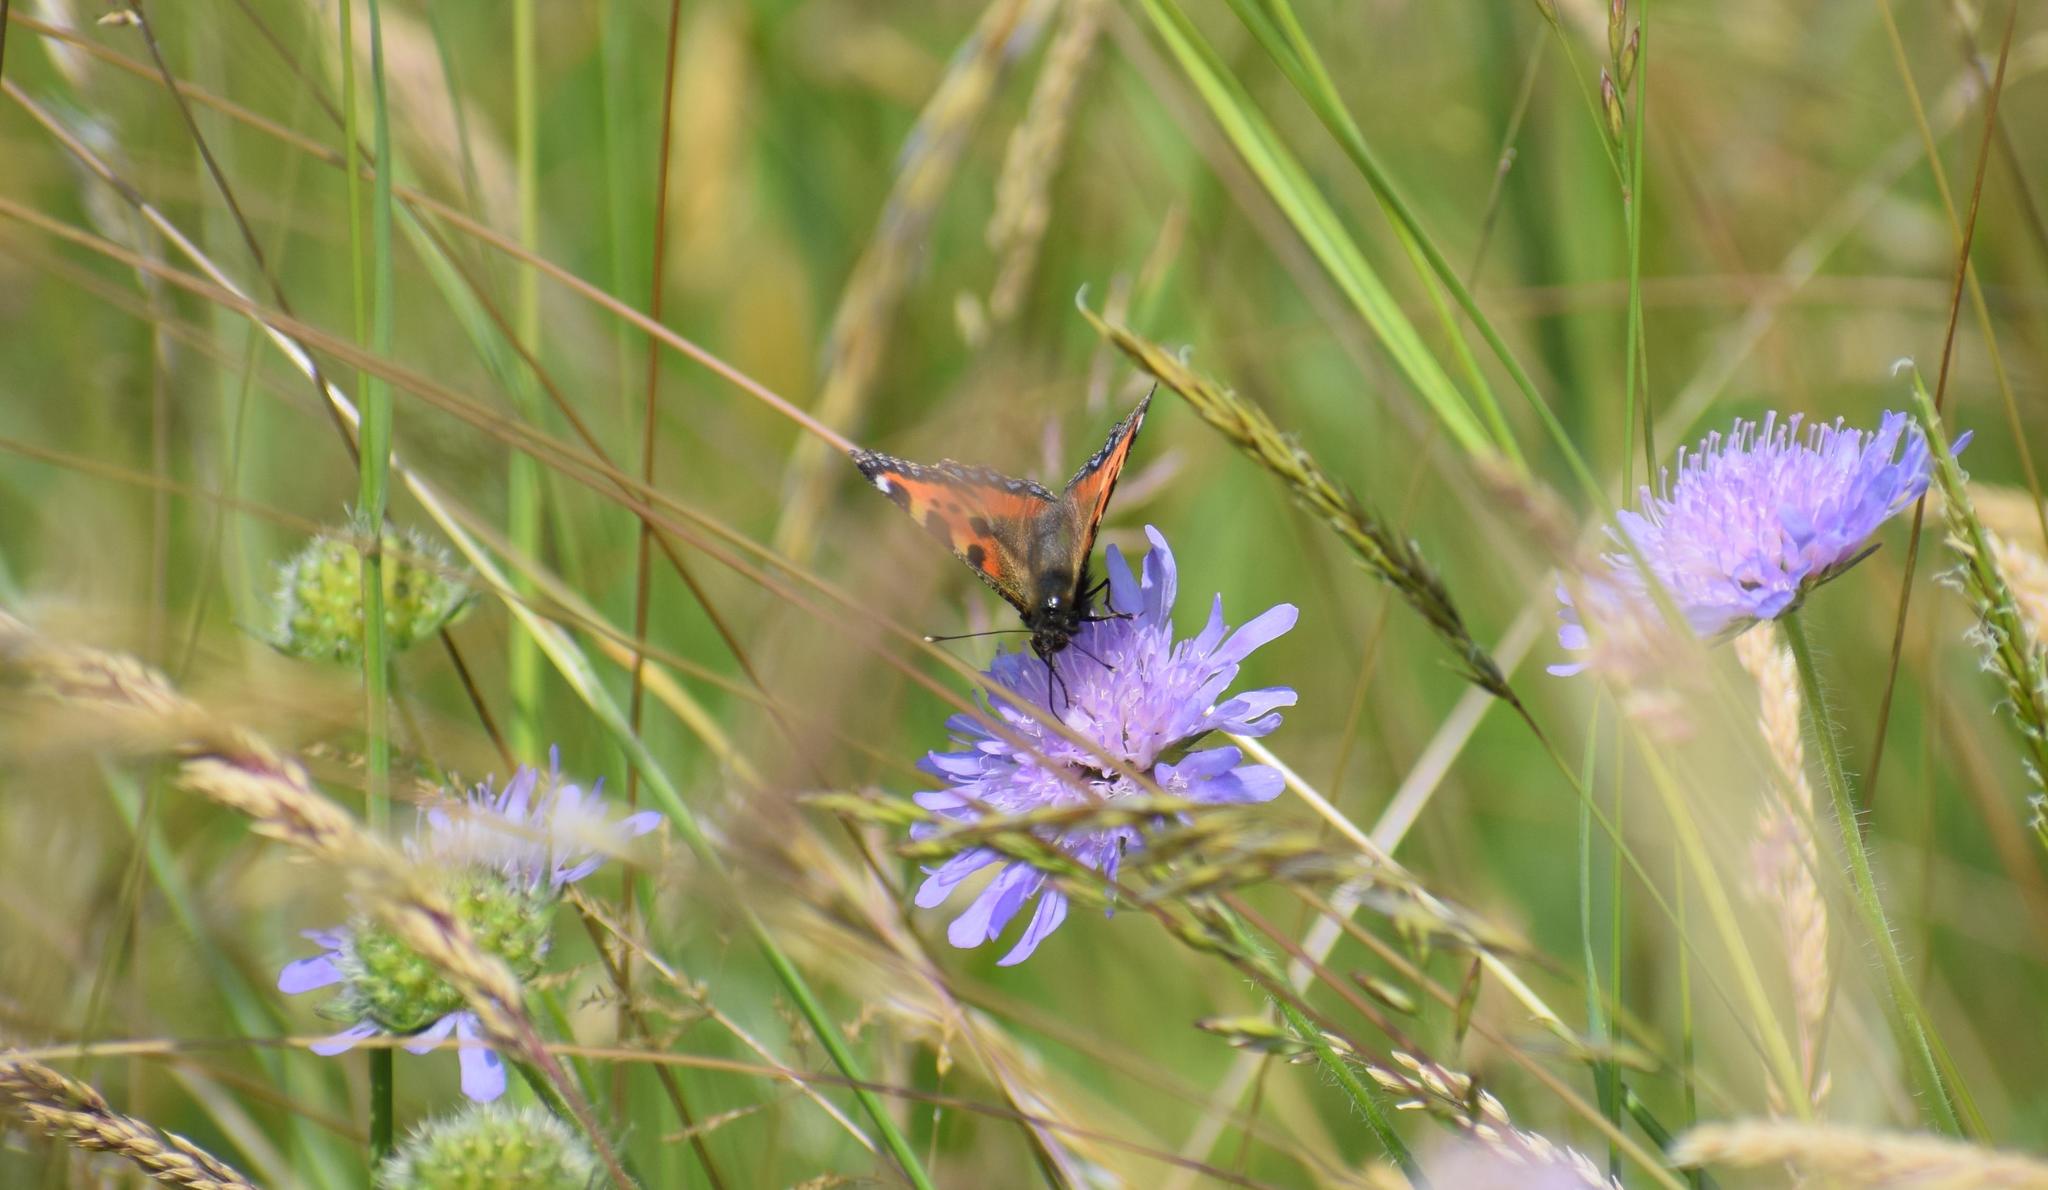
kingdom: Animalia
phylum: Arthropoda
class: Insecta
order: Lepidoptera
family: Nymphalidae
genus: Aglais
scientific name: Aglais urticae
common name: Small tortoiseshell
